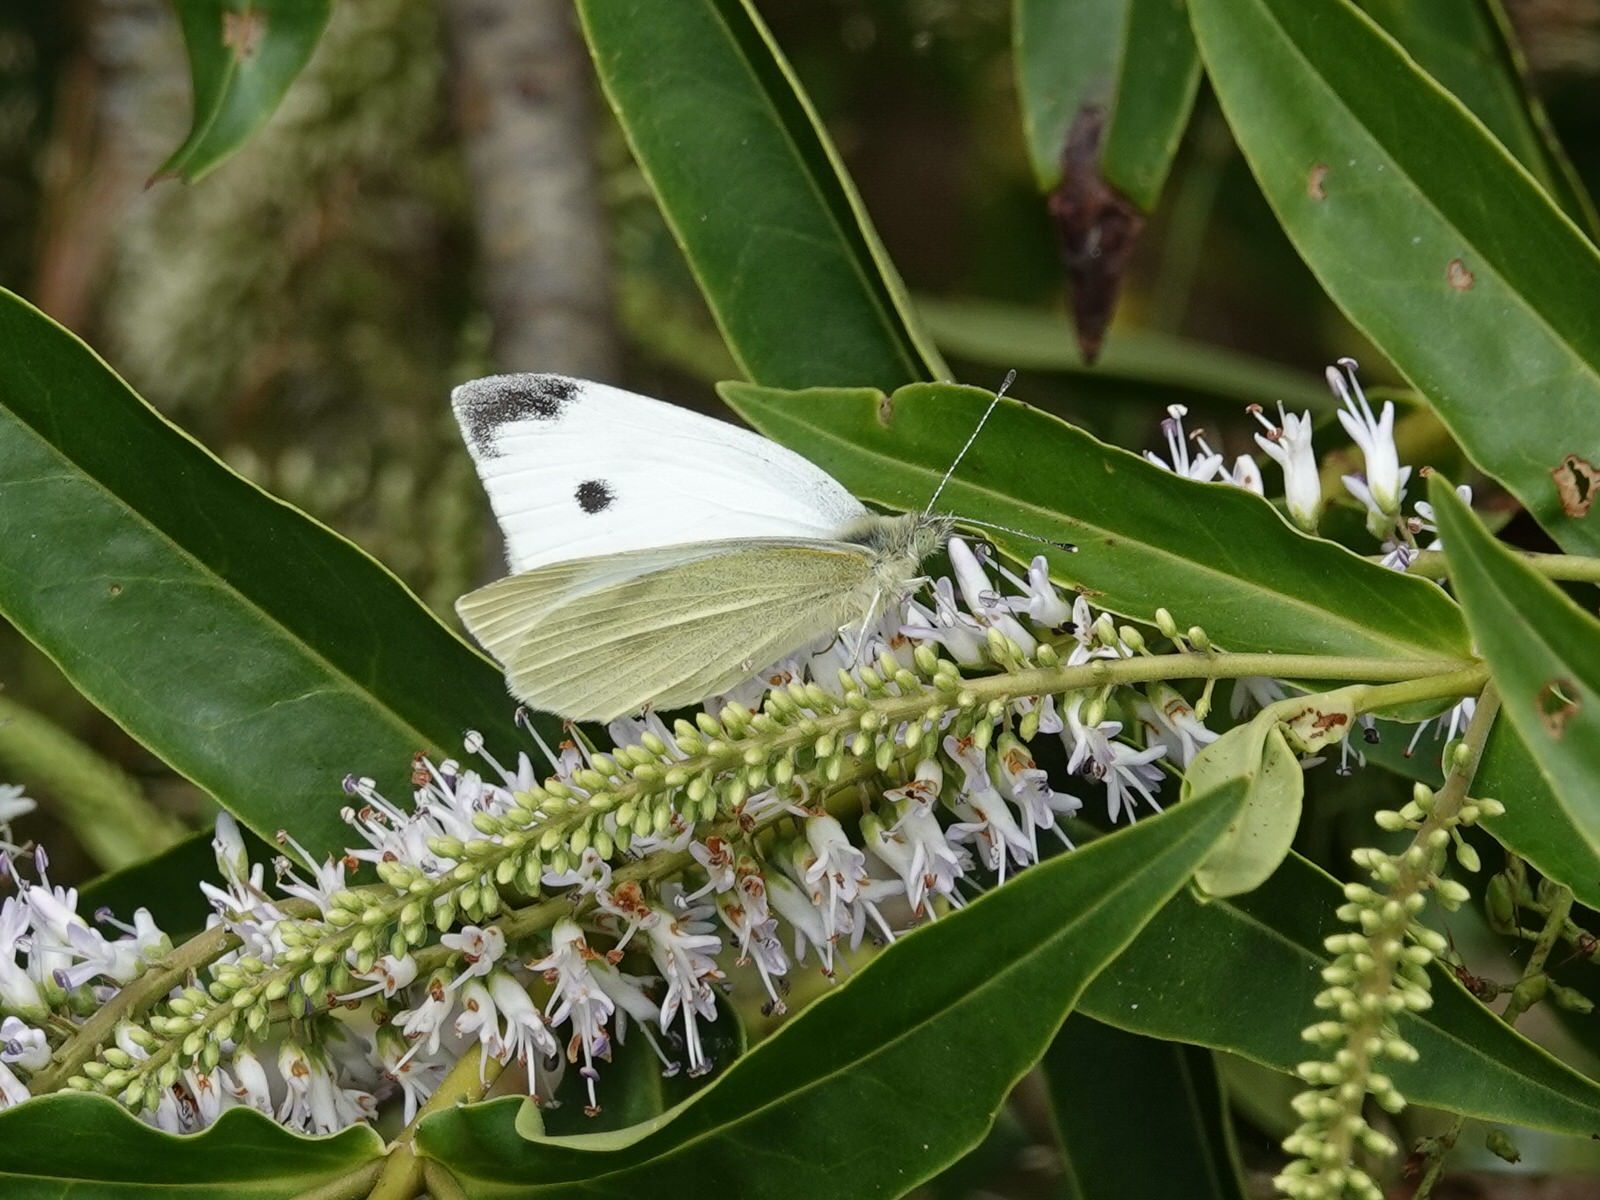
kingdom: Animalia
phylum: Arthropoda
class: Insecta
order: Lepidoptera
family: Pieridae
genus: Pieris
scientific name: Pieris rapae
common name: Small white
